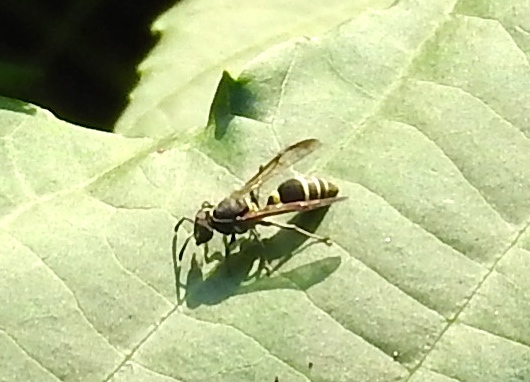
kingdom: Animalia
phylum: Arthropoda
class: Insecta
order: Hymenoptera
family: Vespidae
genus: Myrapetra
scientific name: Myrapetra
